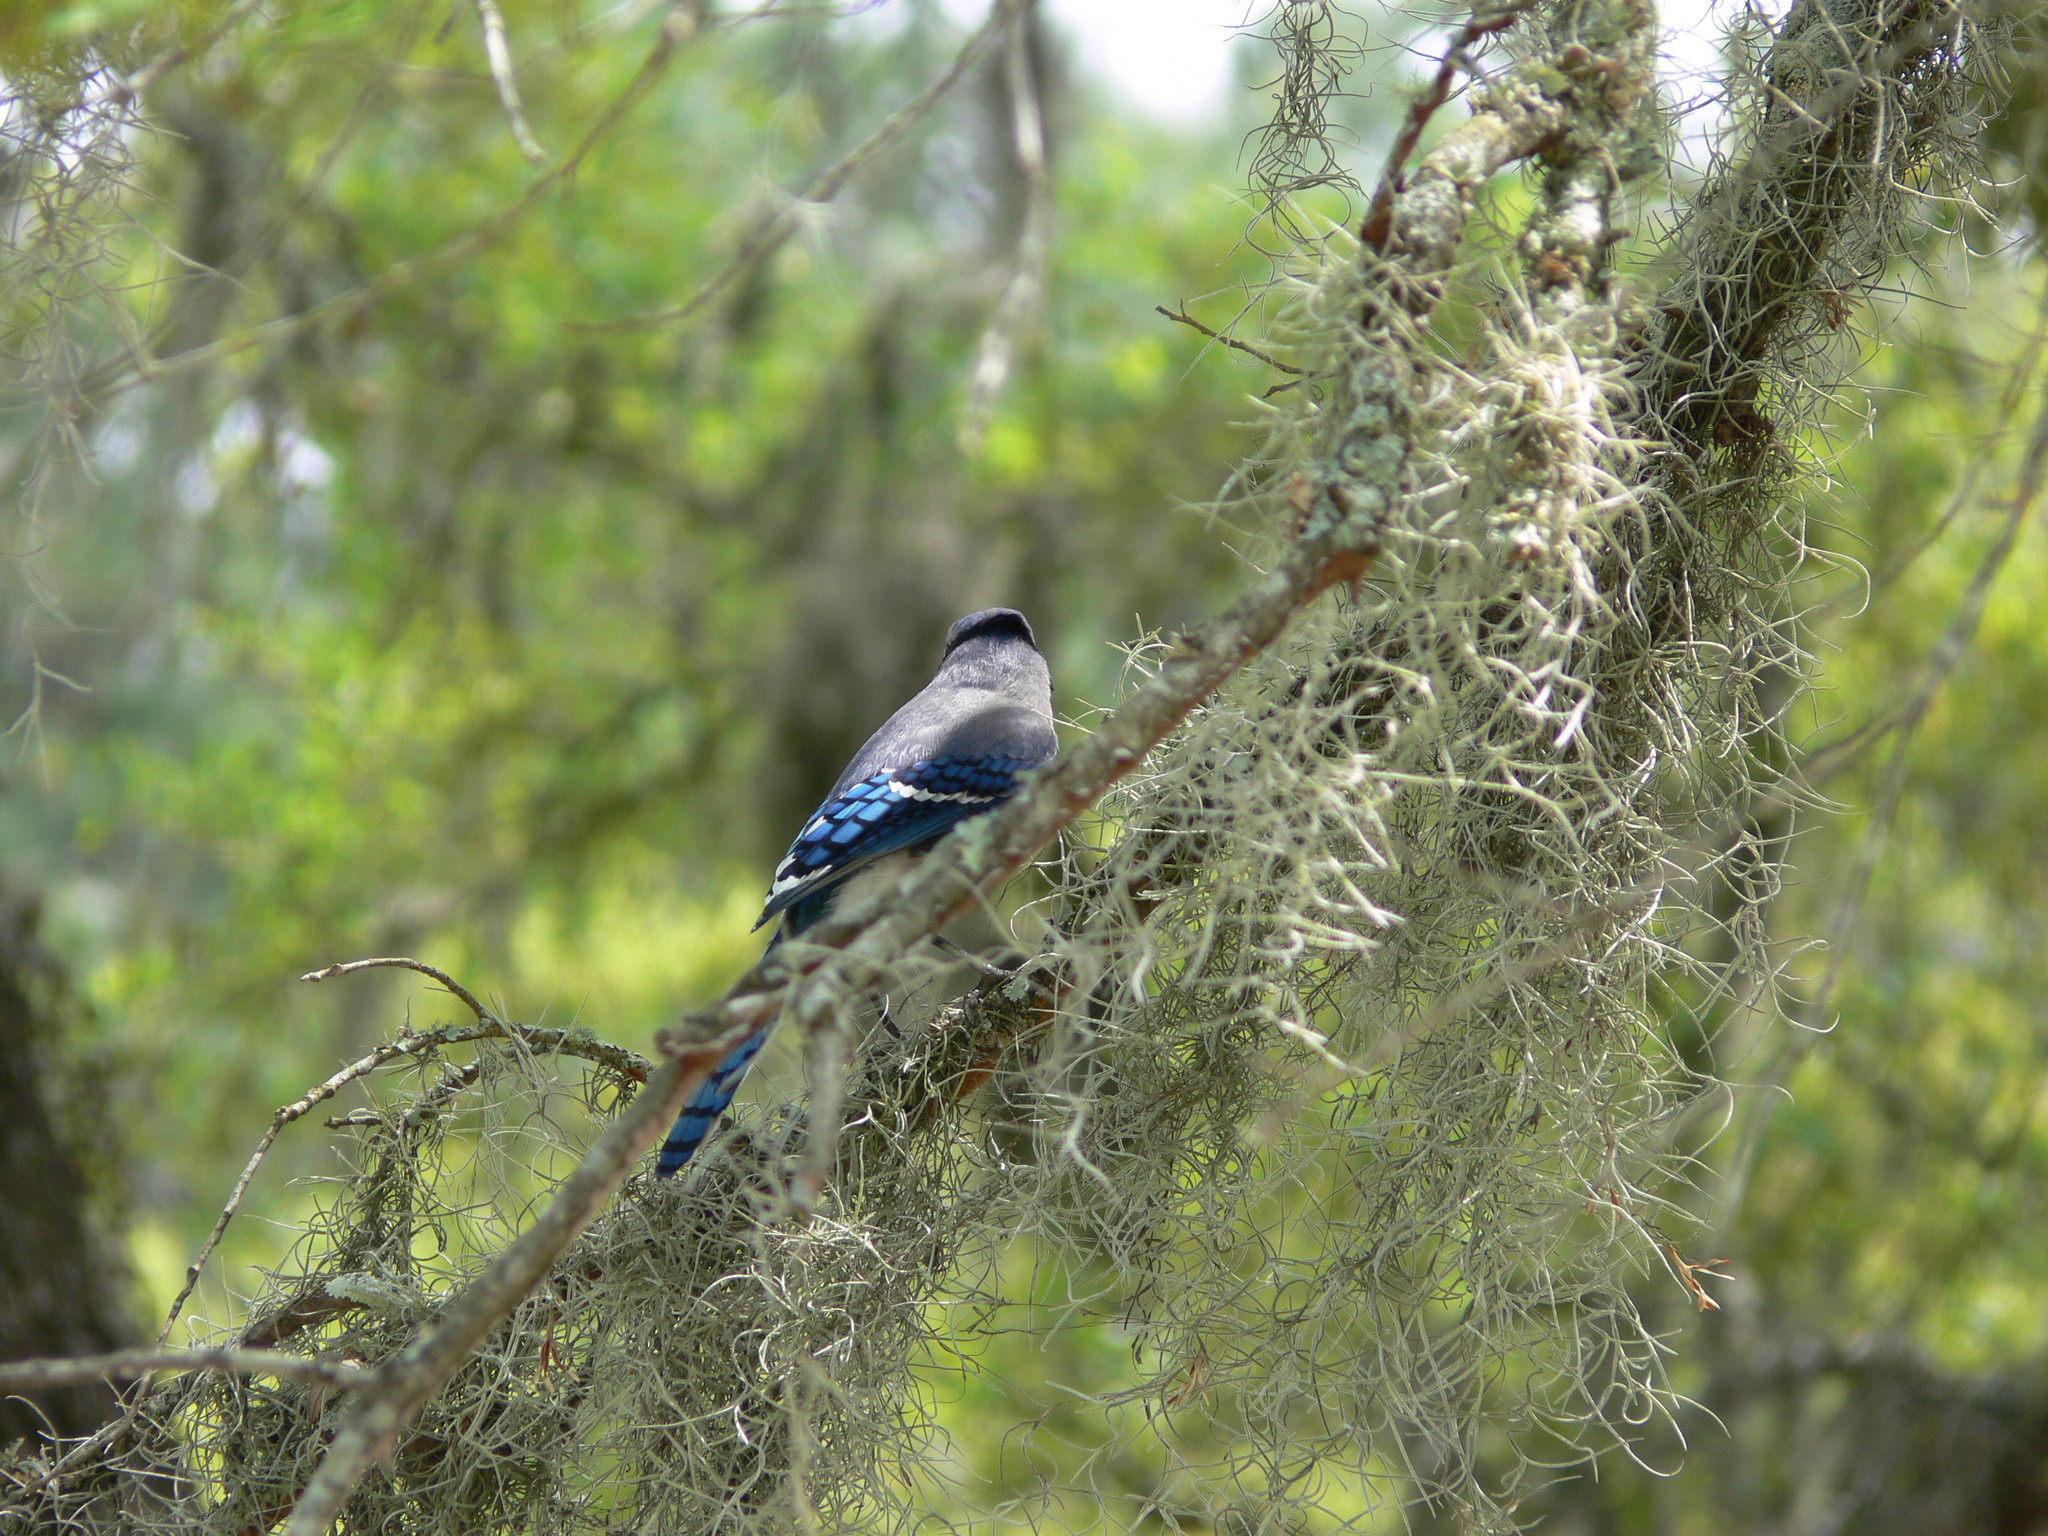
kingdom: Animalia
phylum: Chordata
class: Aves
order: Passeriformes
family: Corvidae
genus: Cyanocitta
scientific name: Cyanocitta cristata
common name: Blue jay
